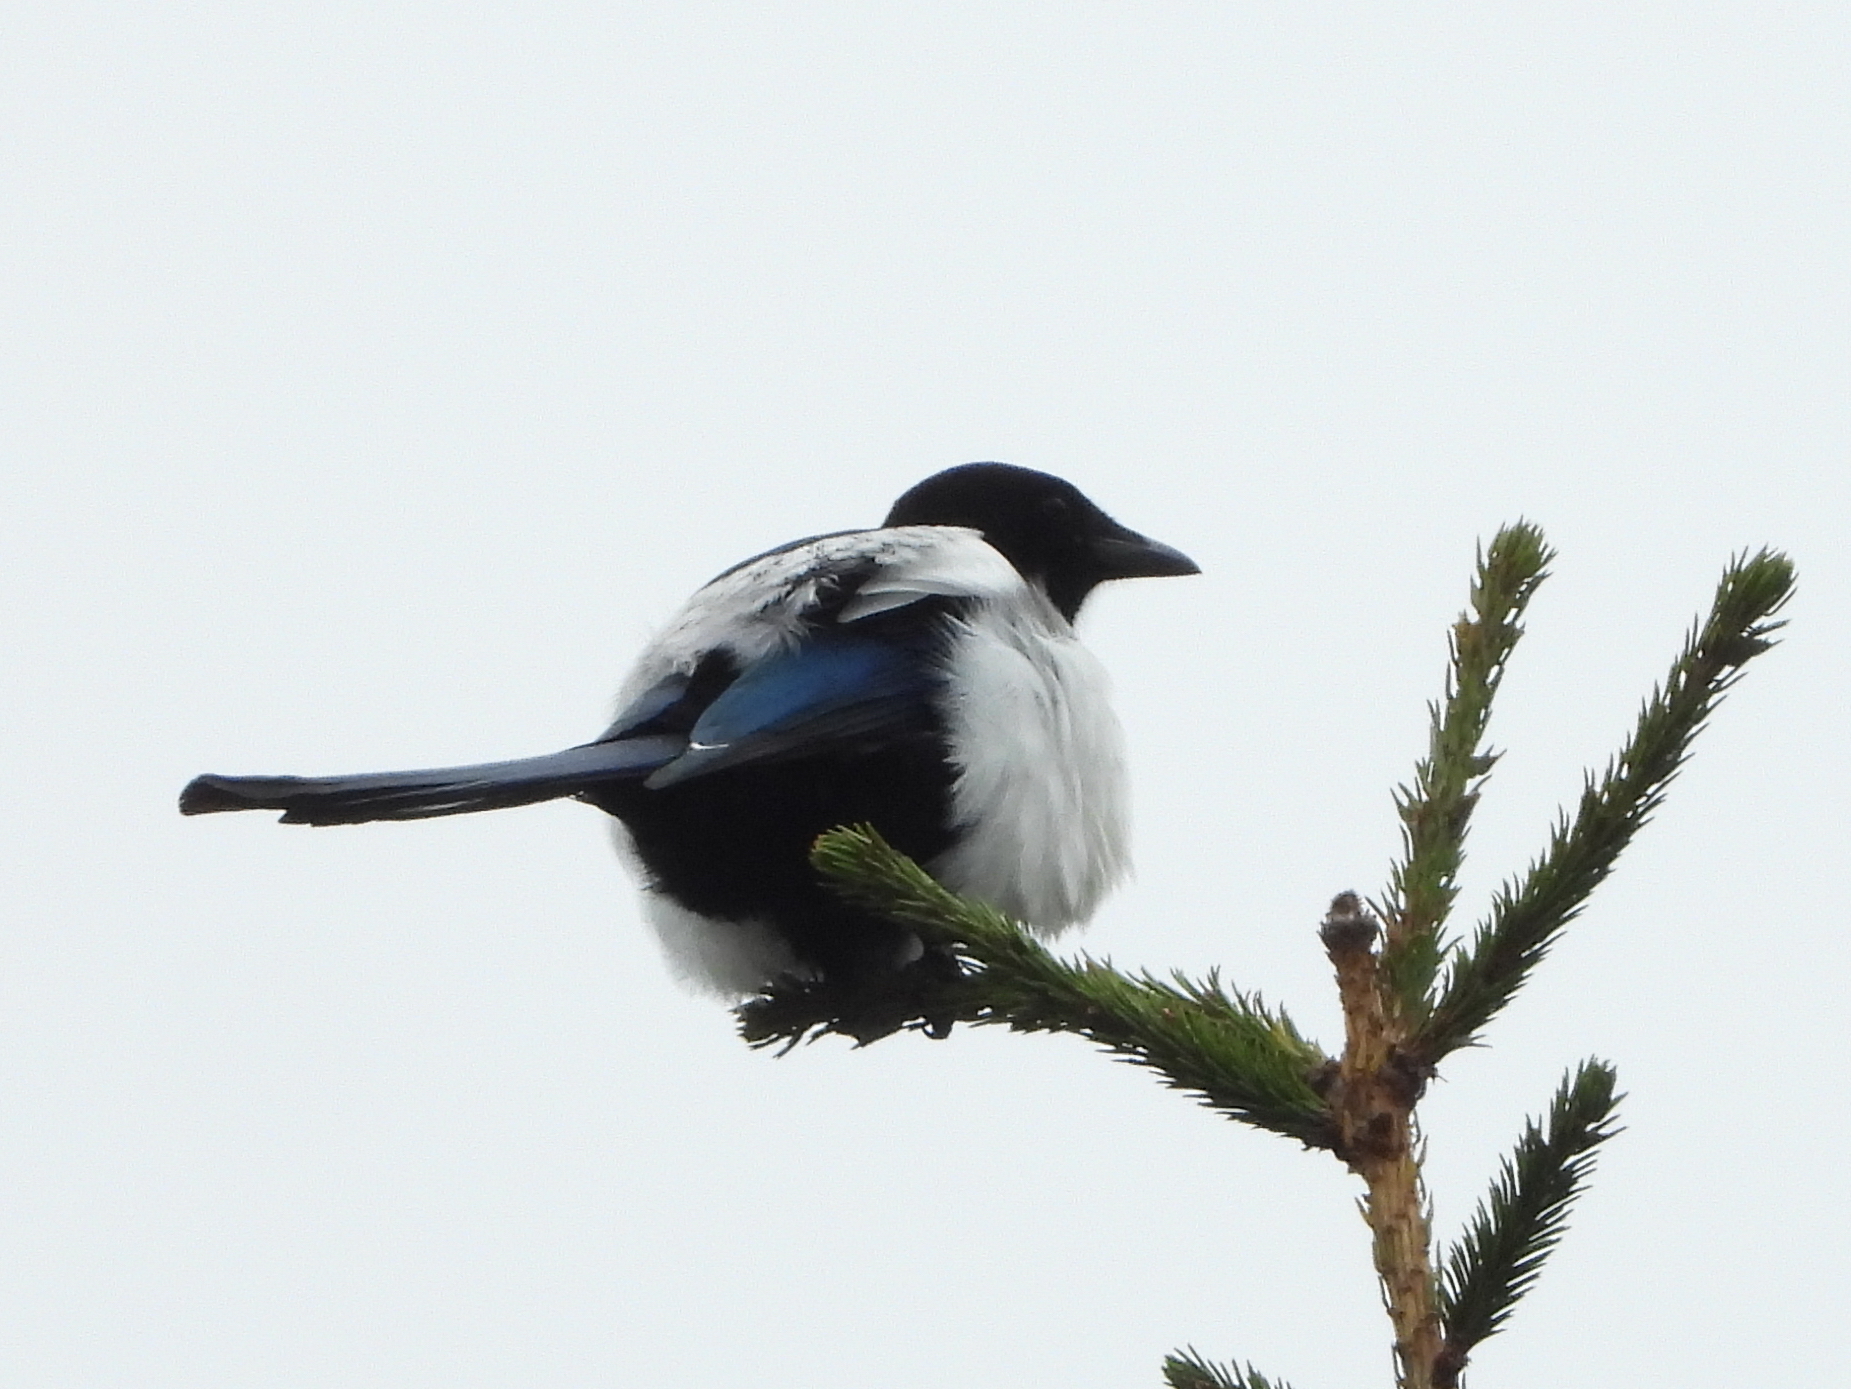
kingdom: Animalia
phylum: Chordata
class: Aves
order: Passeriformes
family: Corvidae
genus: Pica
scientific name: Pica pica
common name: Eurasian magpie
